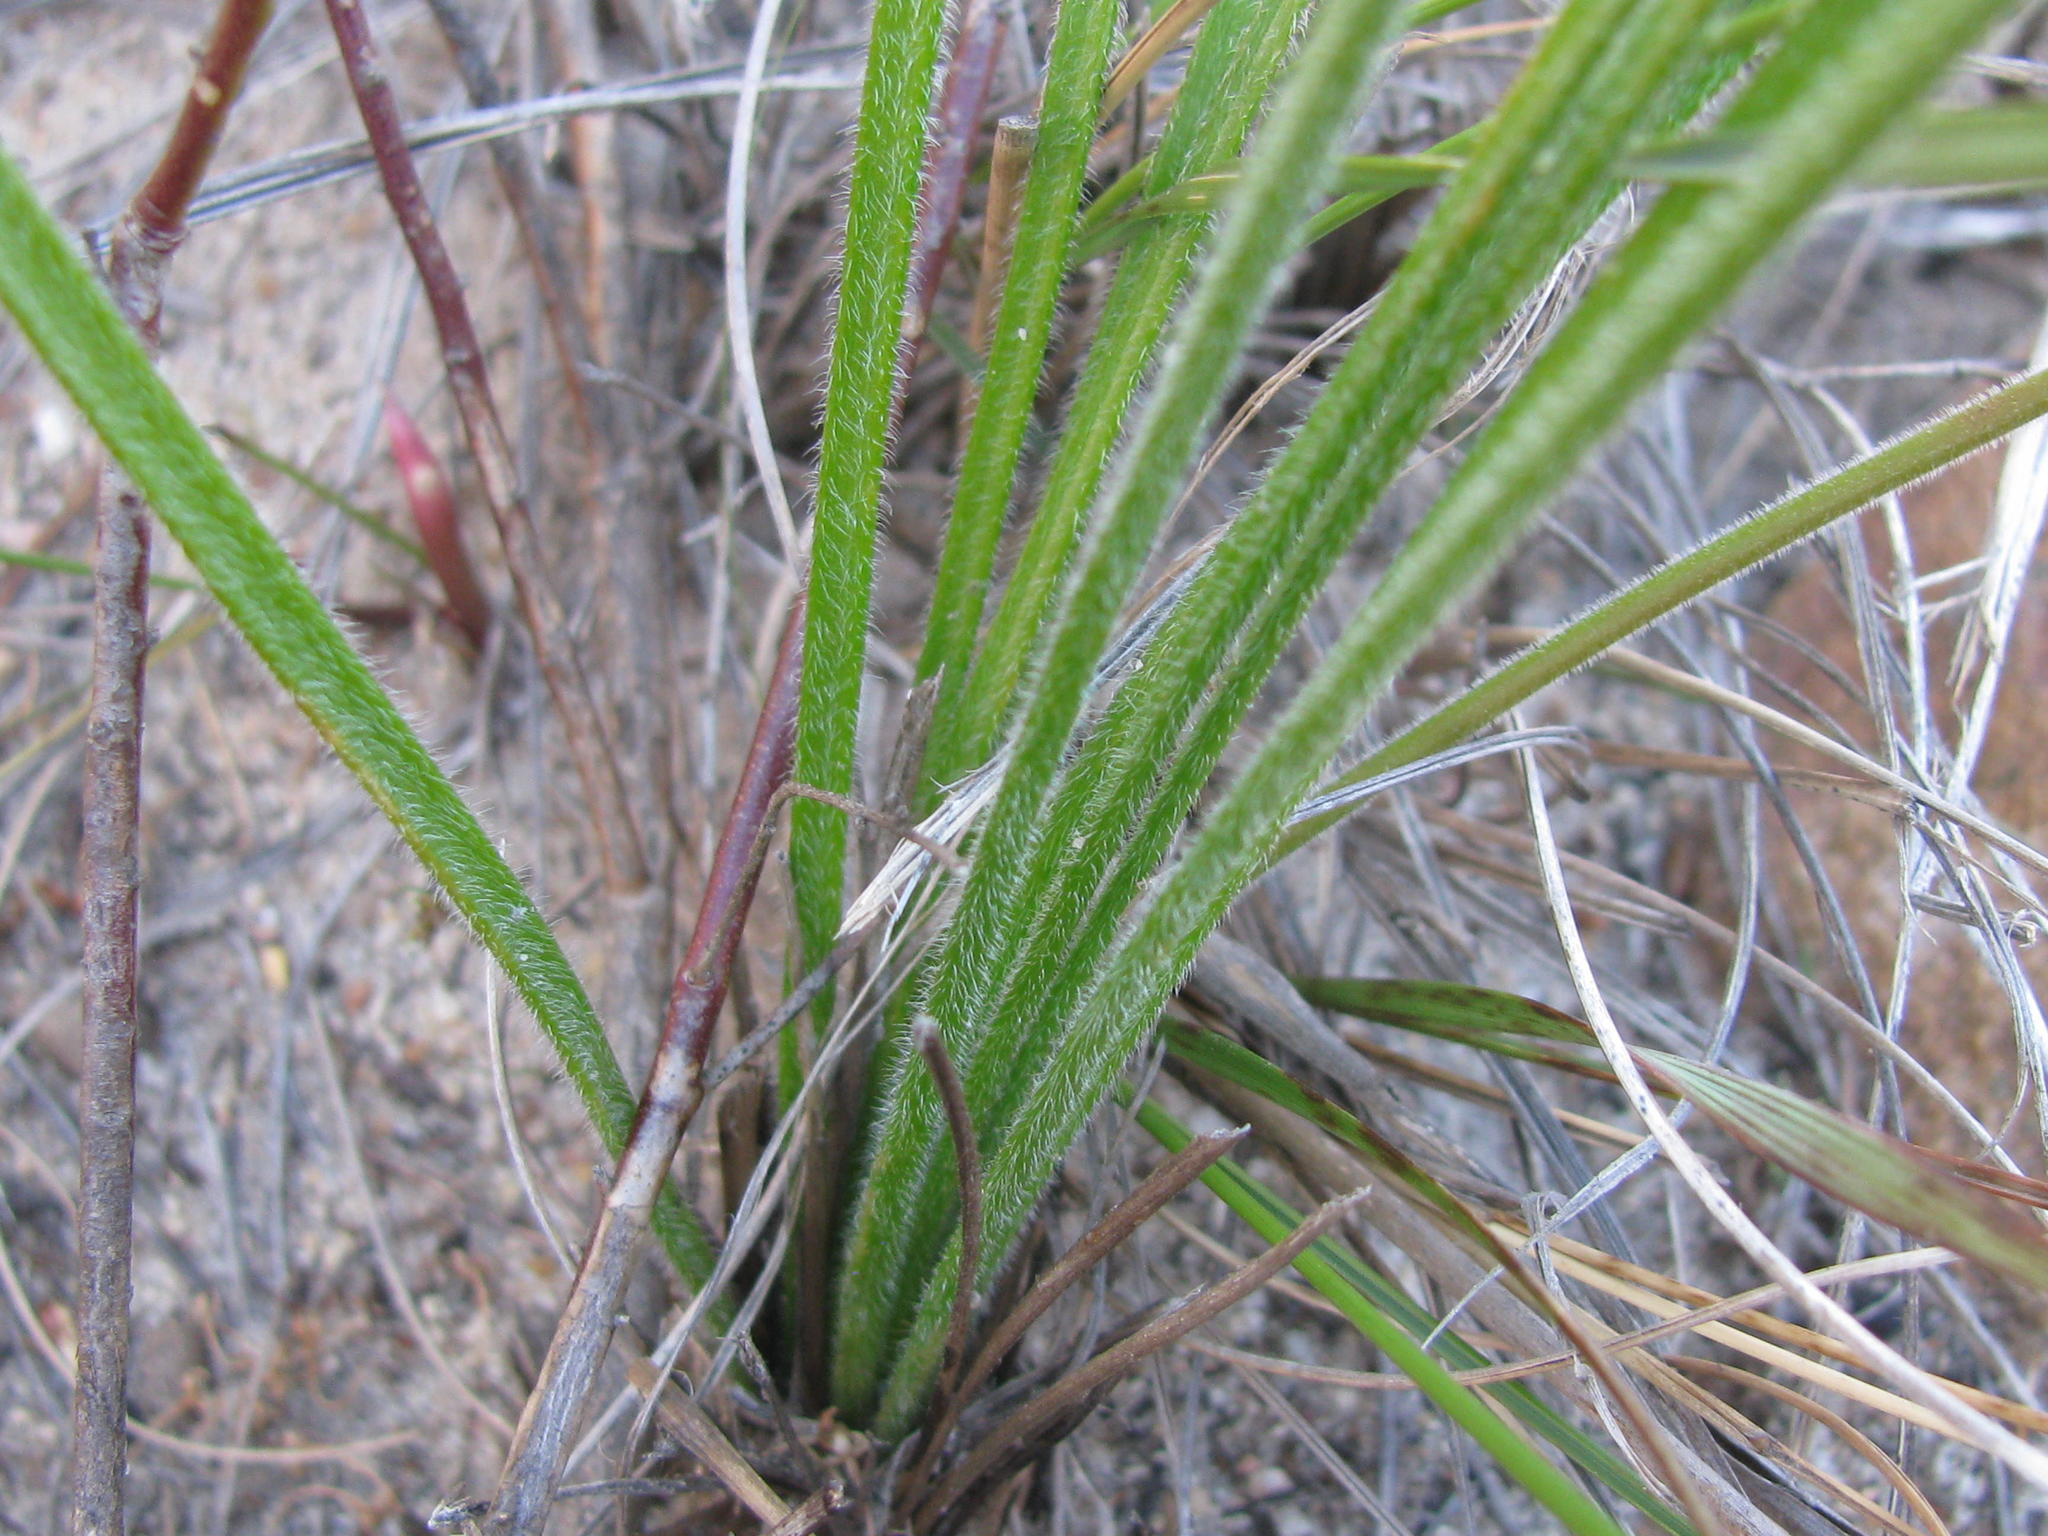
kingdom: Plantae
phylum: Tracheophyta
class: Liliopsida
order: Asparagales
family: Asphodelaceae
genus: Trachyandra
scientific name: Trachyandra hirsuta
